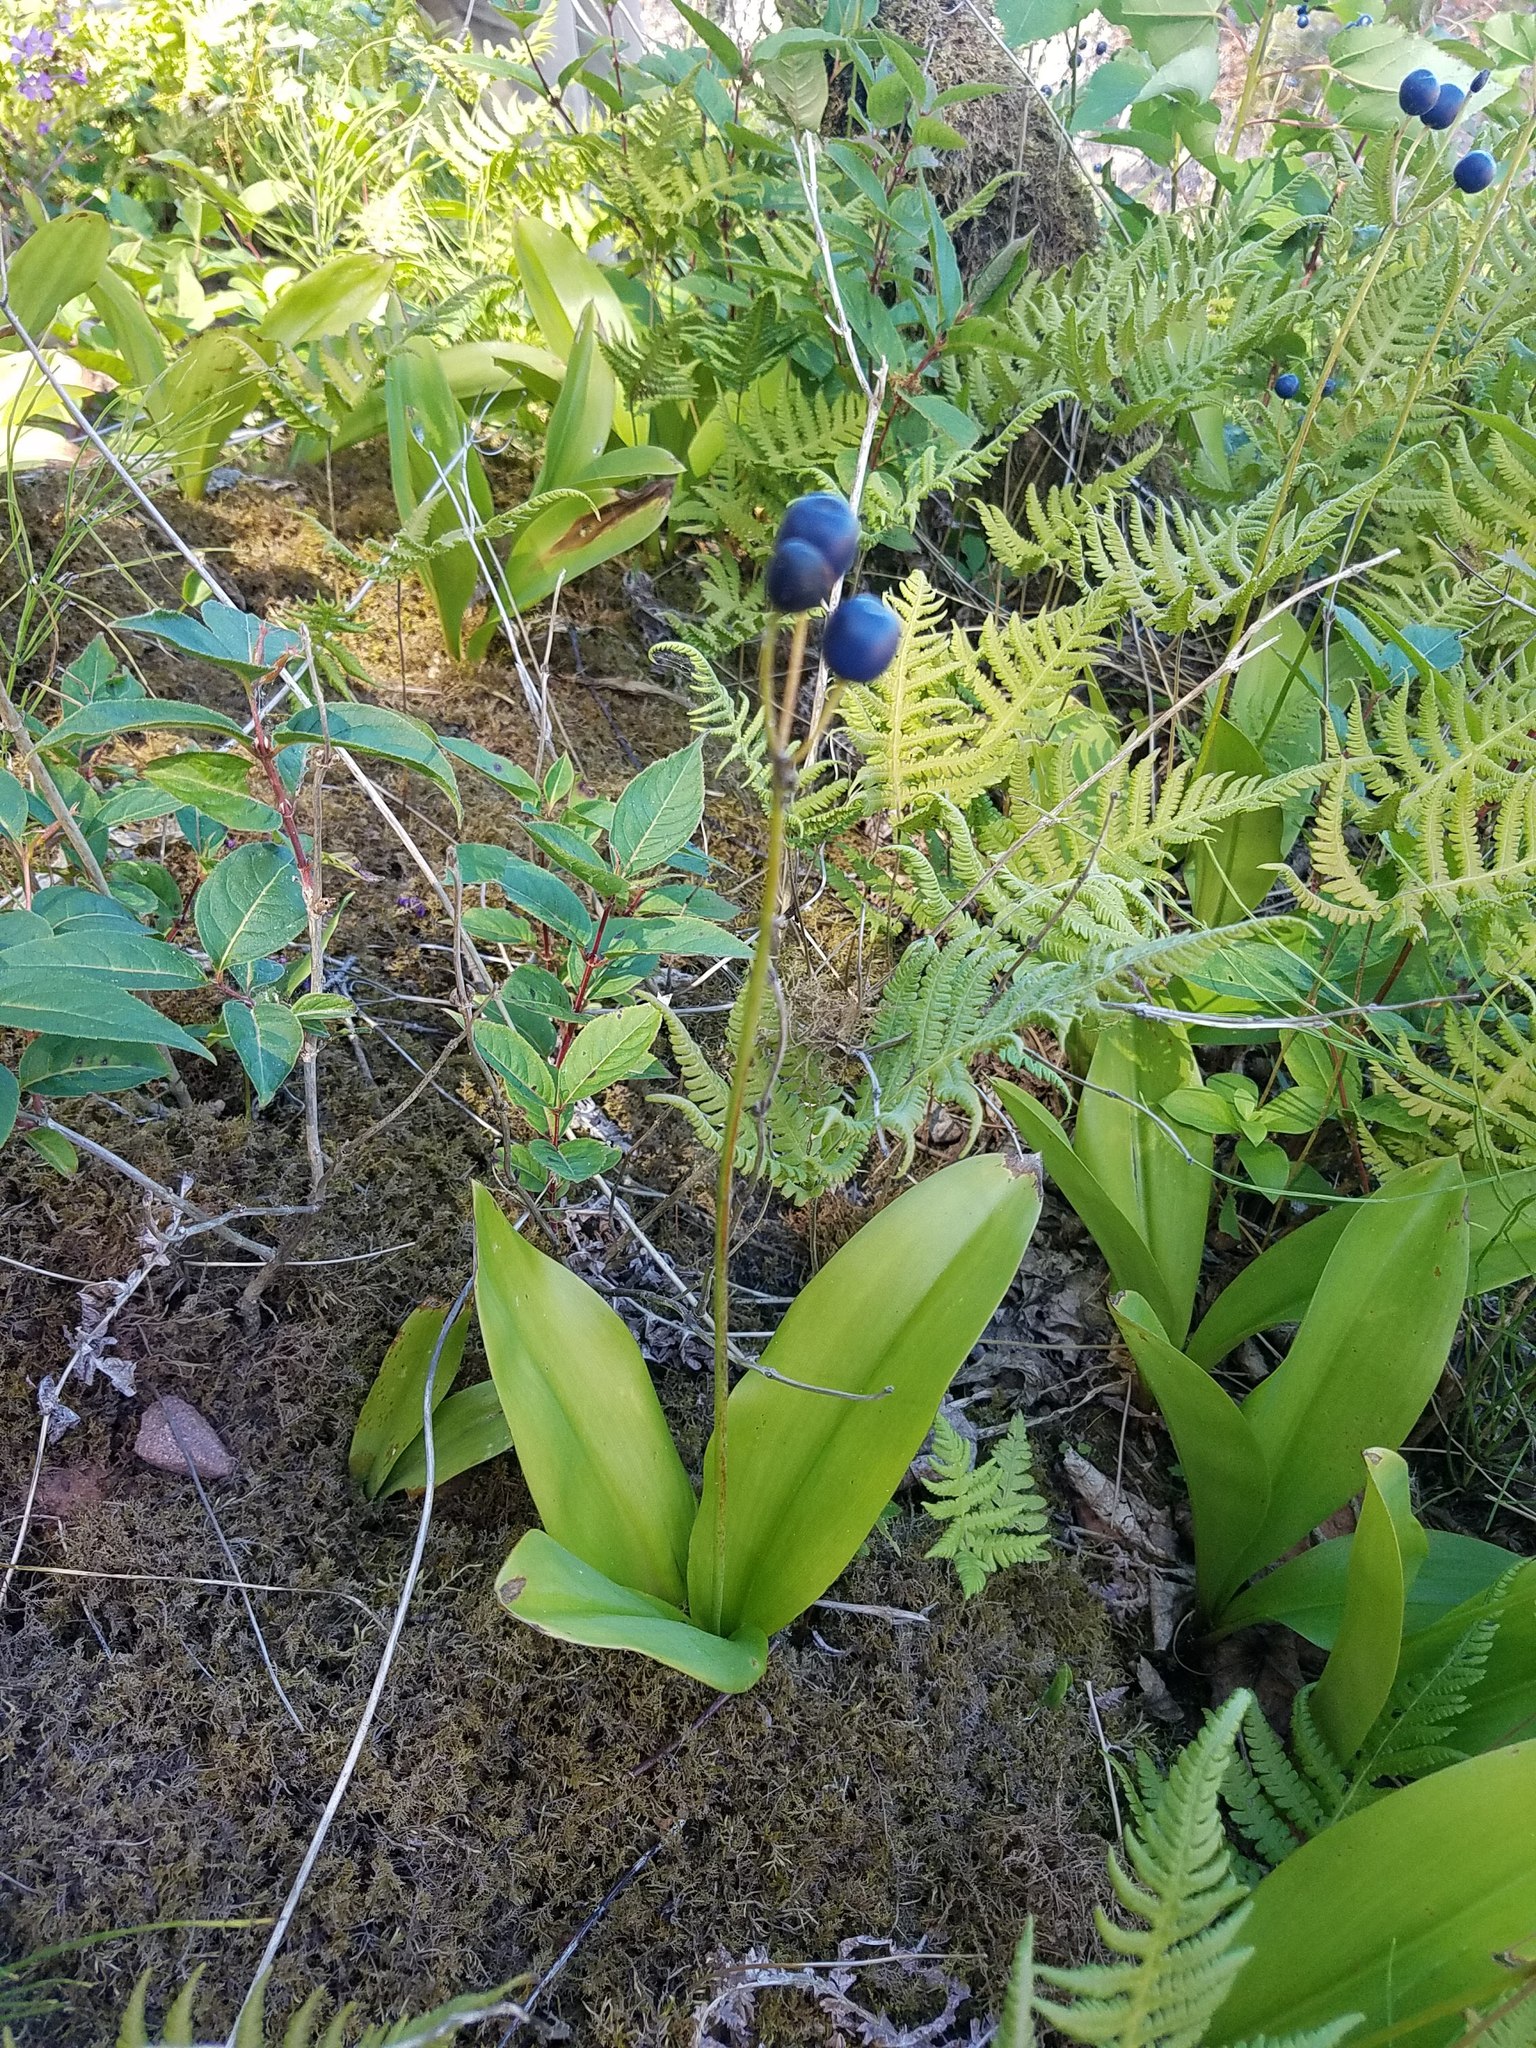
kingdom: Plantae
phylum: Tracheophyta
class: Liliopsida
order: Liliales
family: Liliaceae
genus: Clintonia
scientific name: Clintonia borealis
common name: Yellow clintonia
